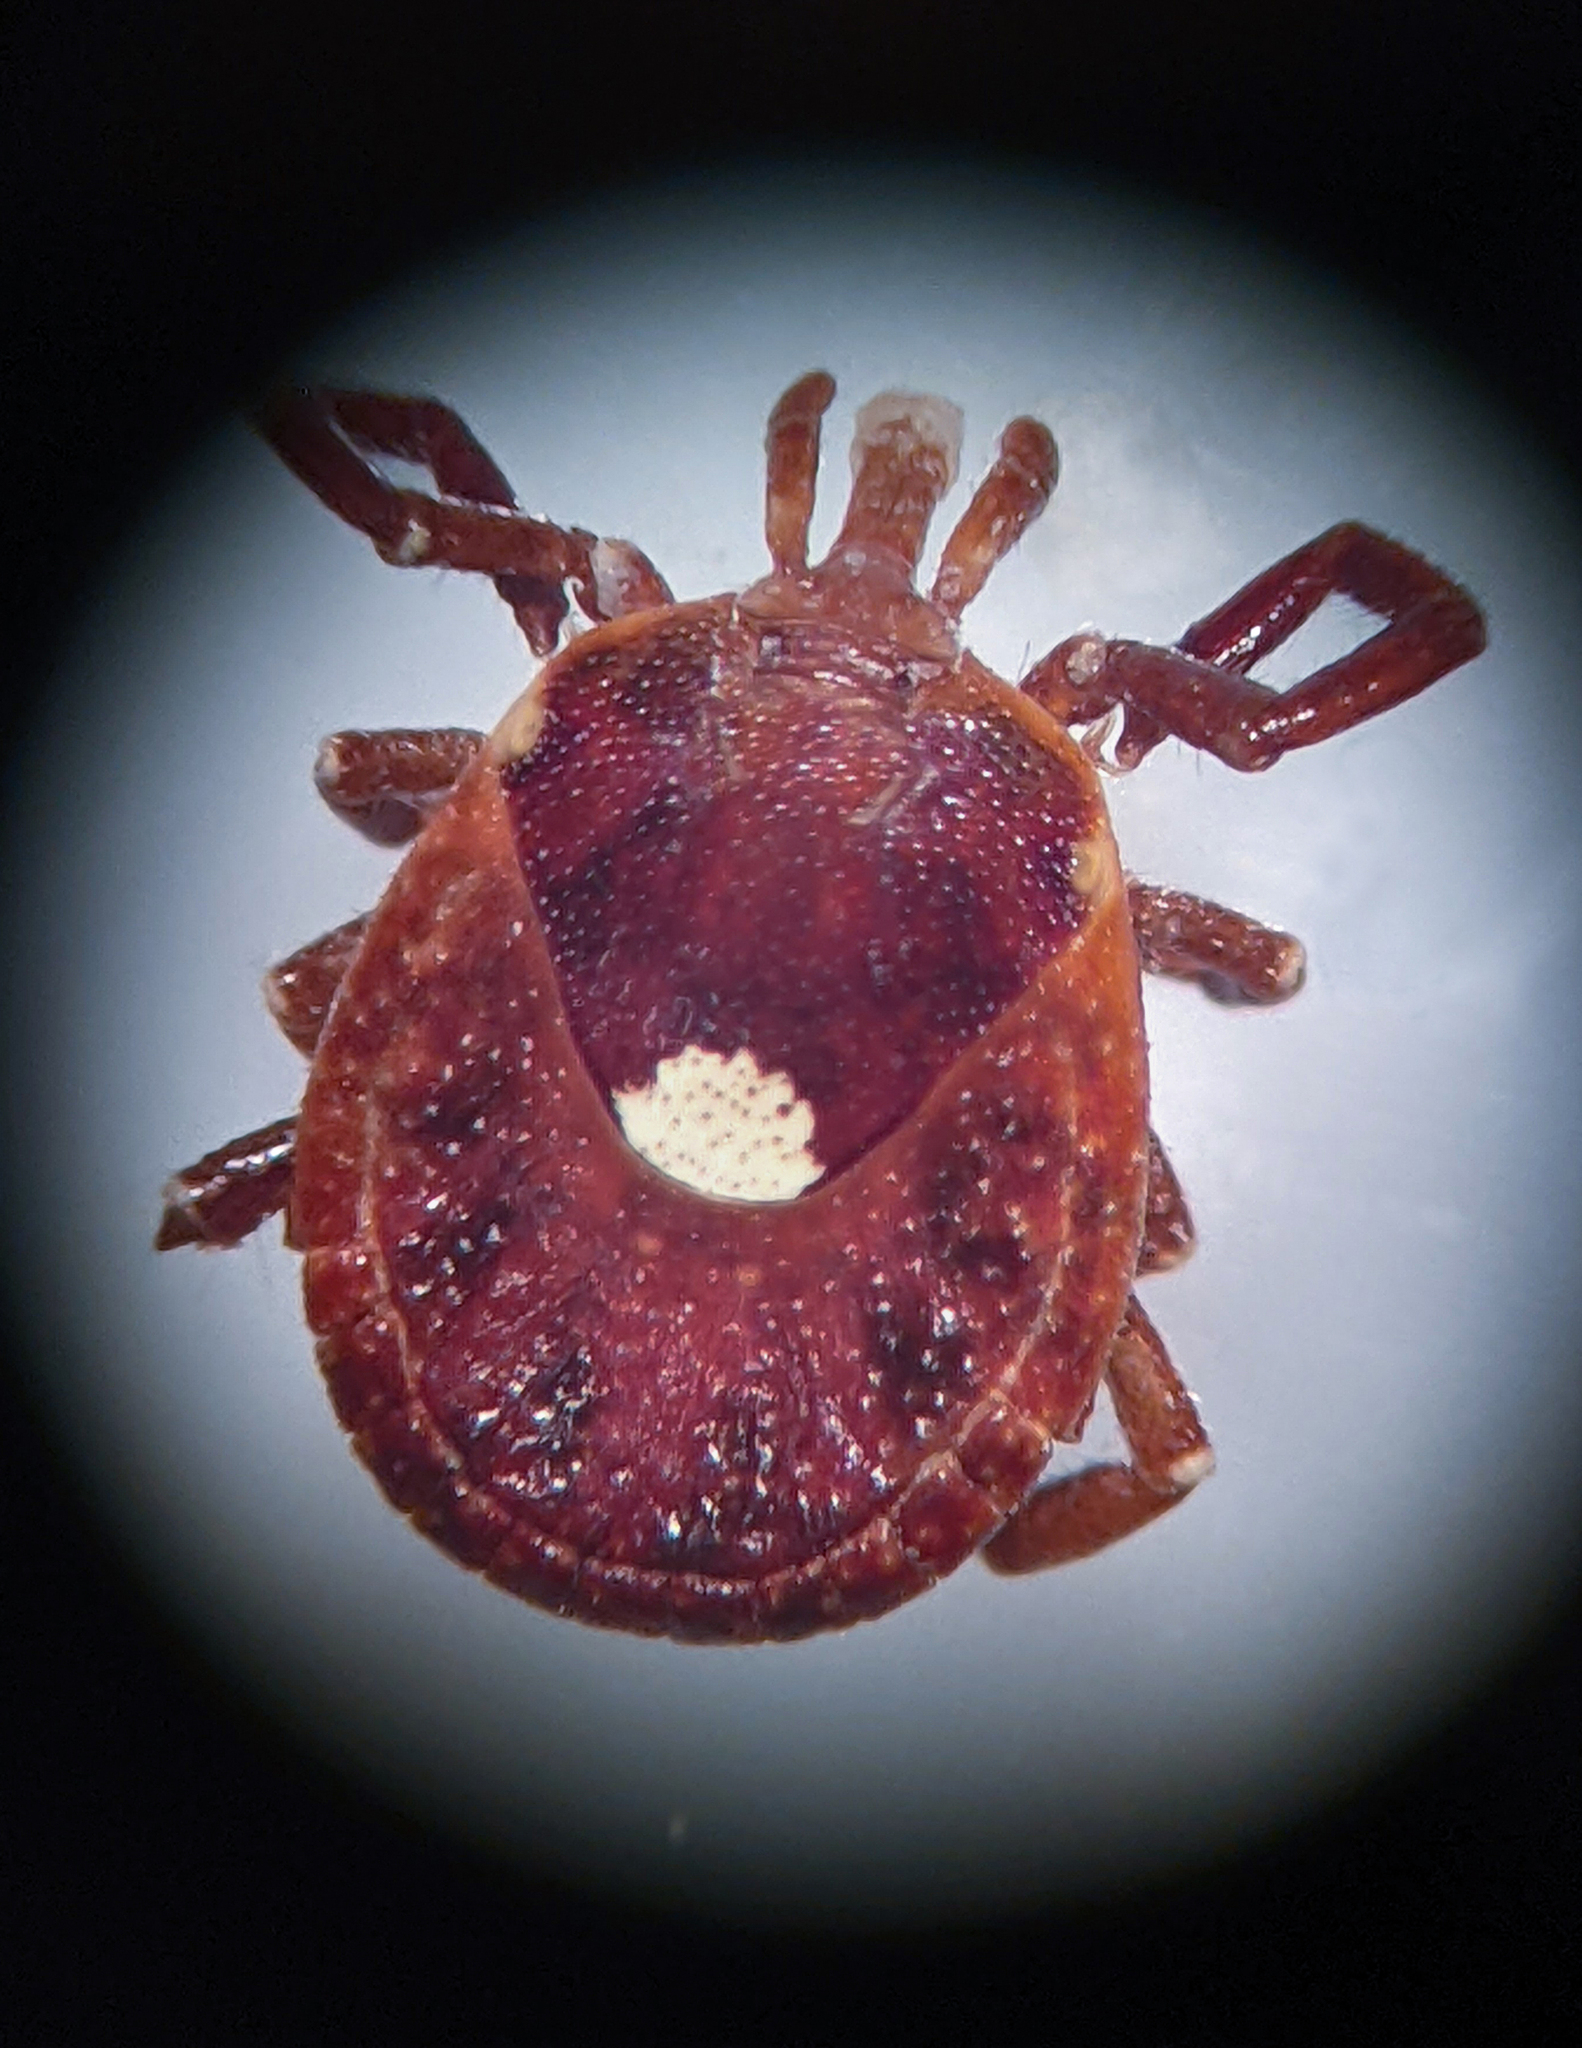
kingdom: Animalia
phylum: Arthropoda
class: Arachnida
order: Ixodida
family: Ixodidae
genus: Amblyomma
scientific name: Amblyomma americanum
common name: Lone star tick
